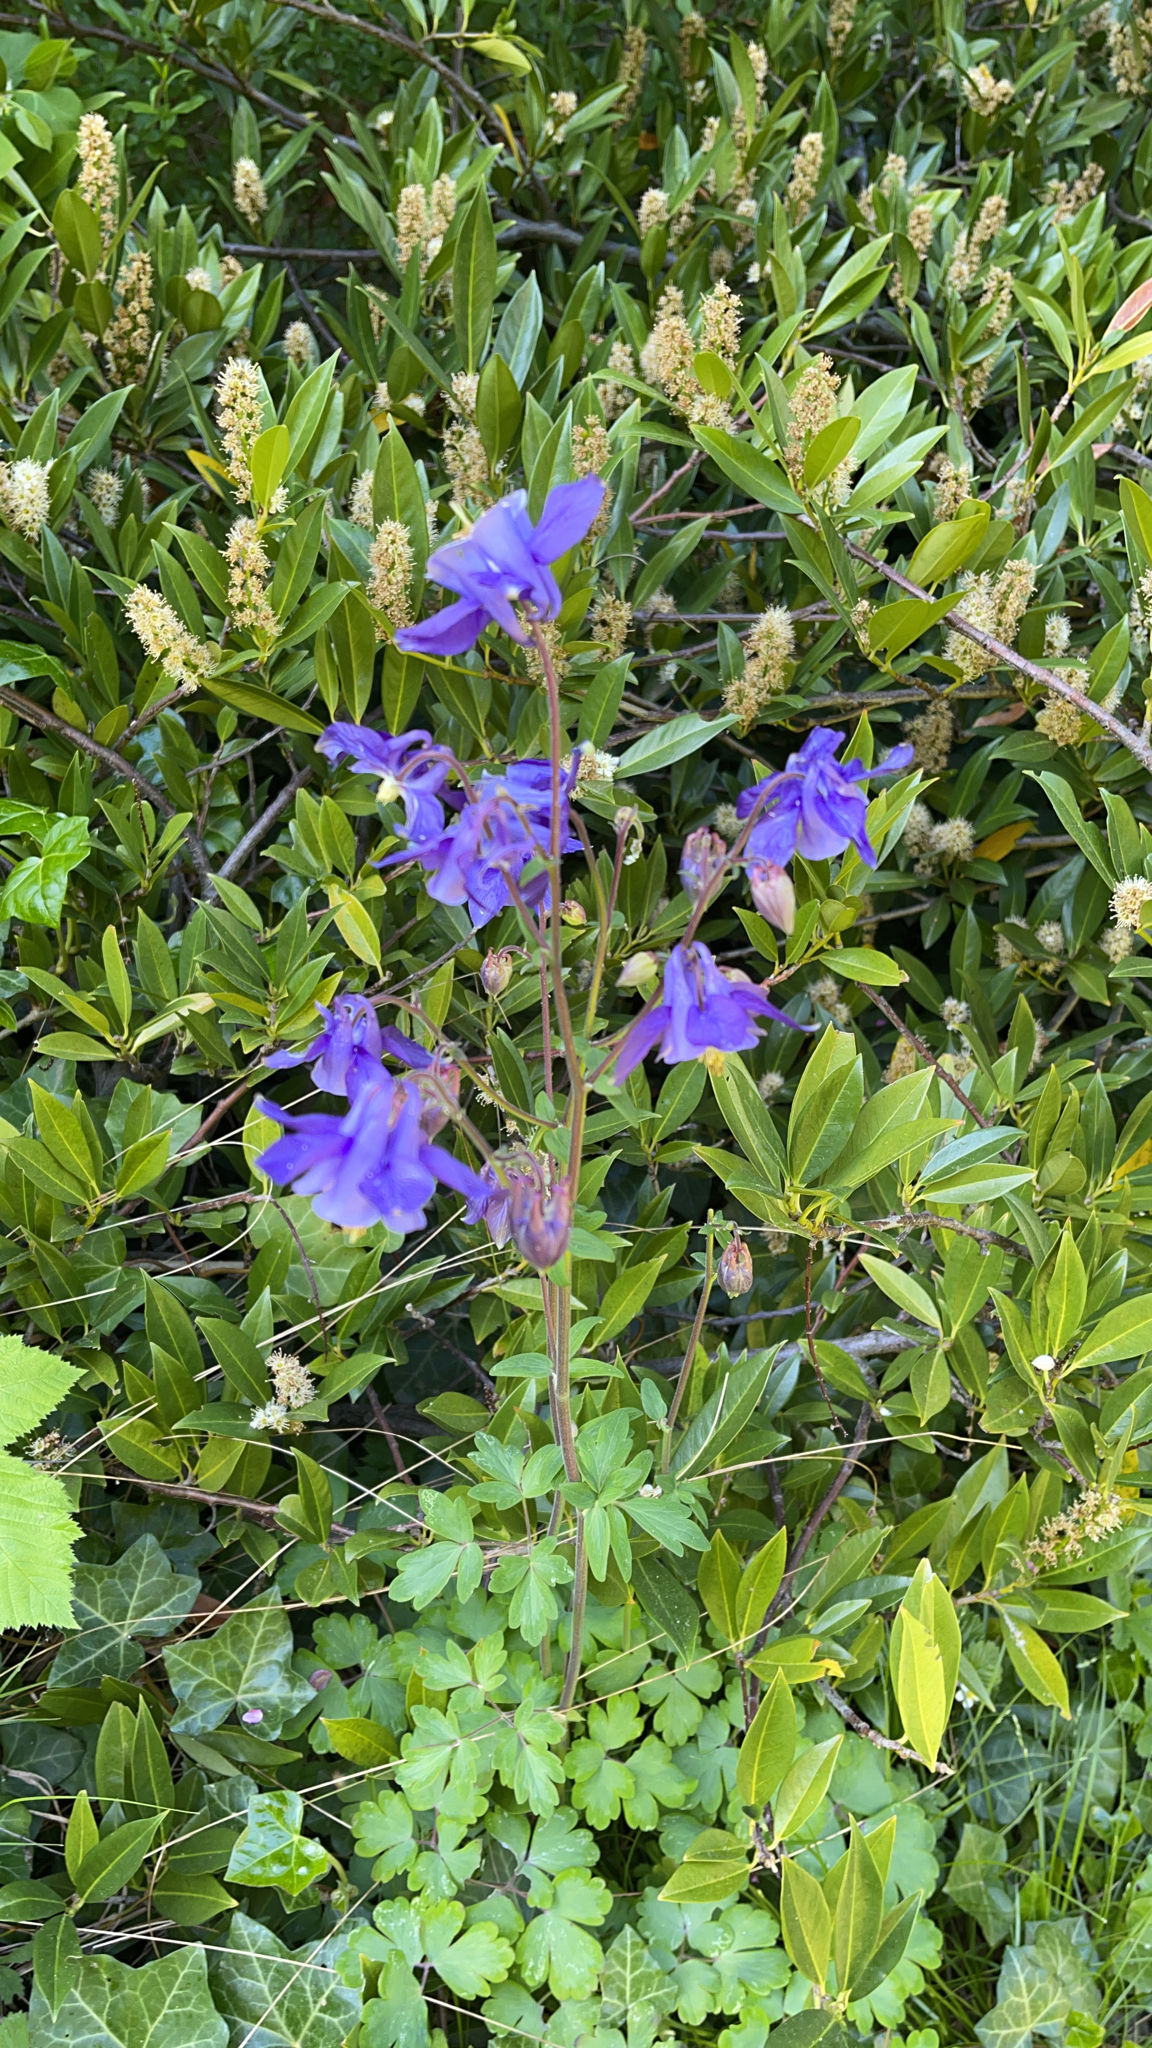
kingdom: Plantae
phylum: Tracheophyta
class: Magnoliopsida
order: Ranunculales
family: Ranunculaceae
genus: Aquilegia
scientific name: Aquilegia vulgaris
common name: Columbine
